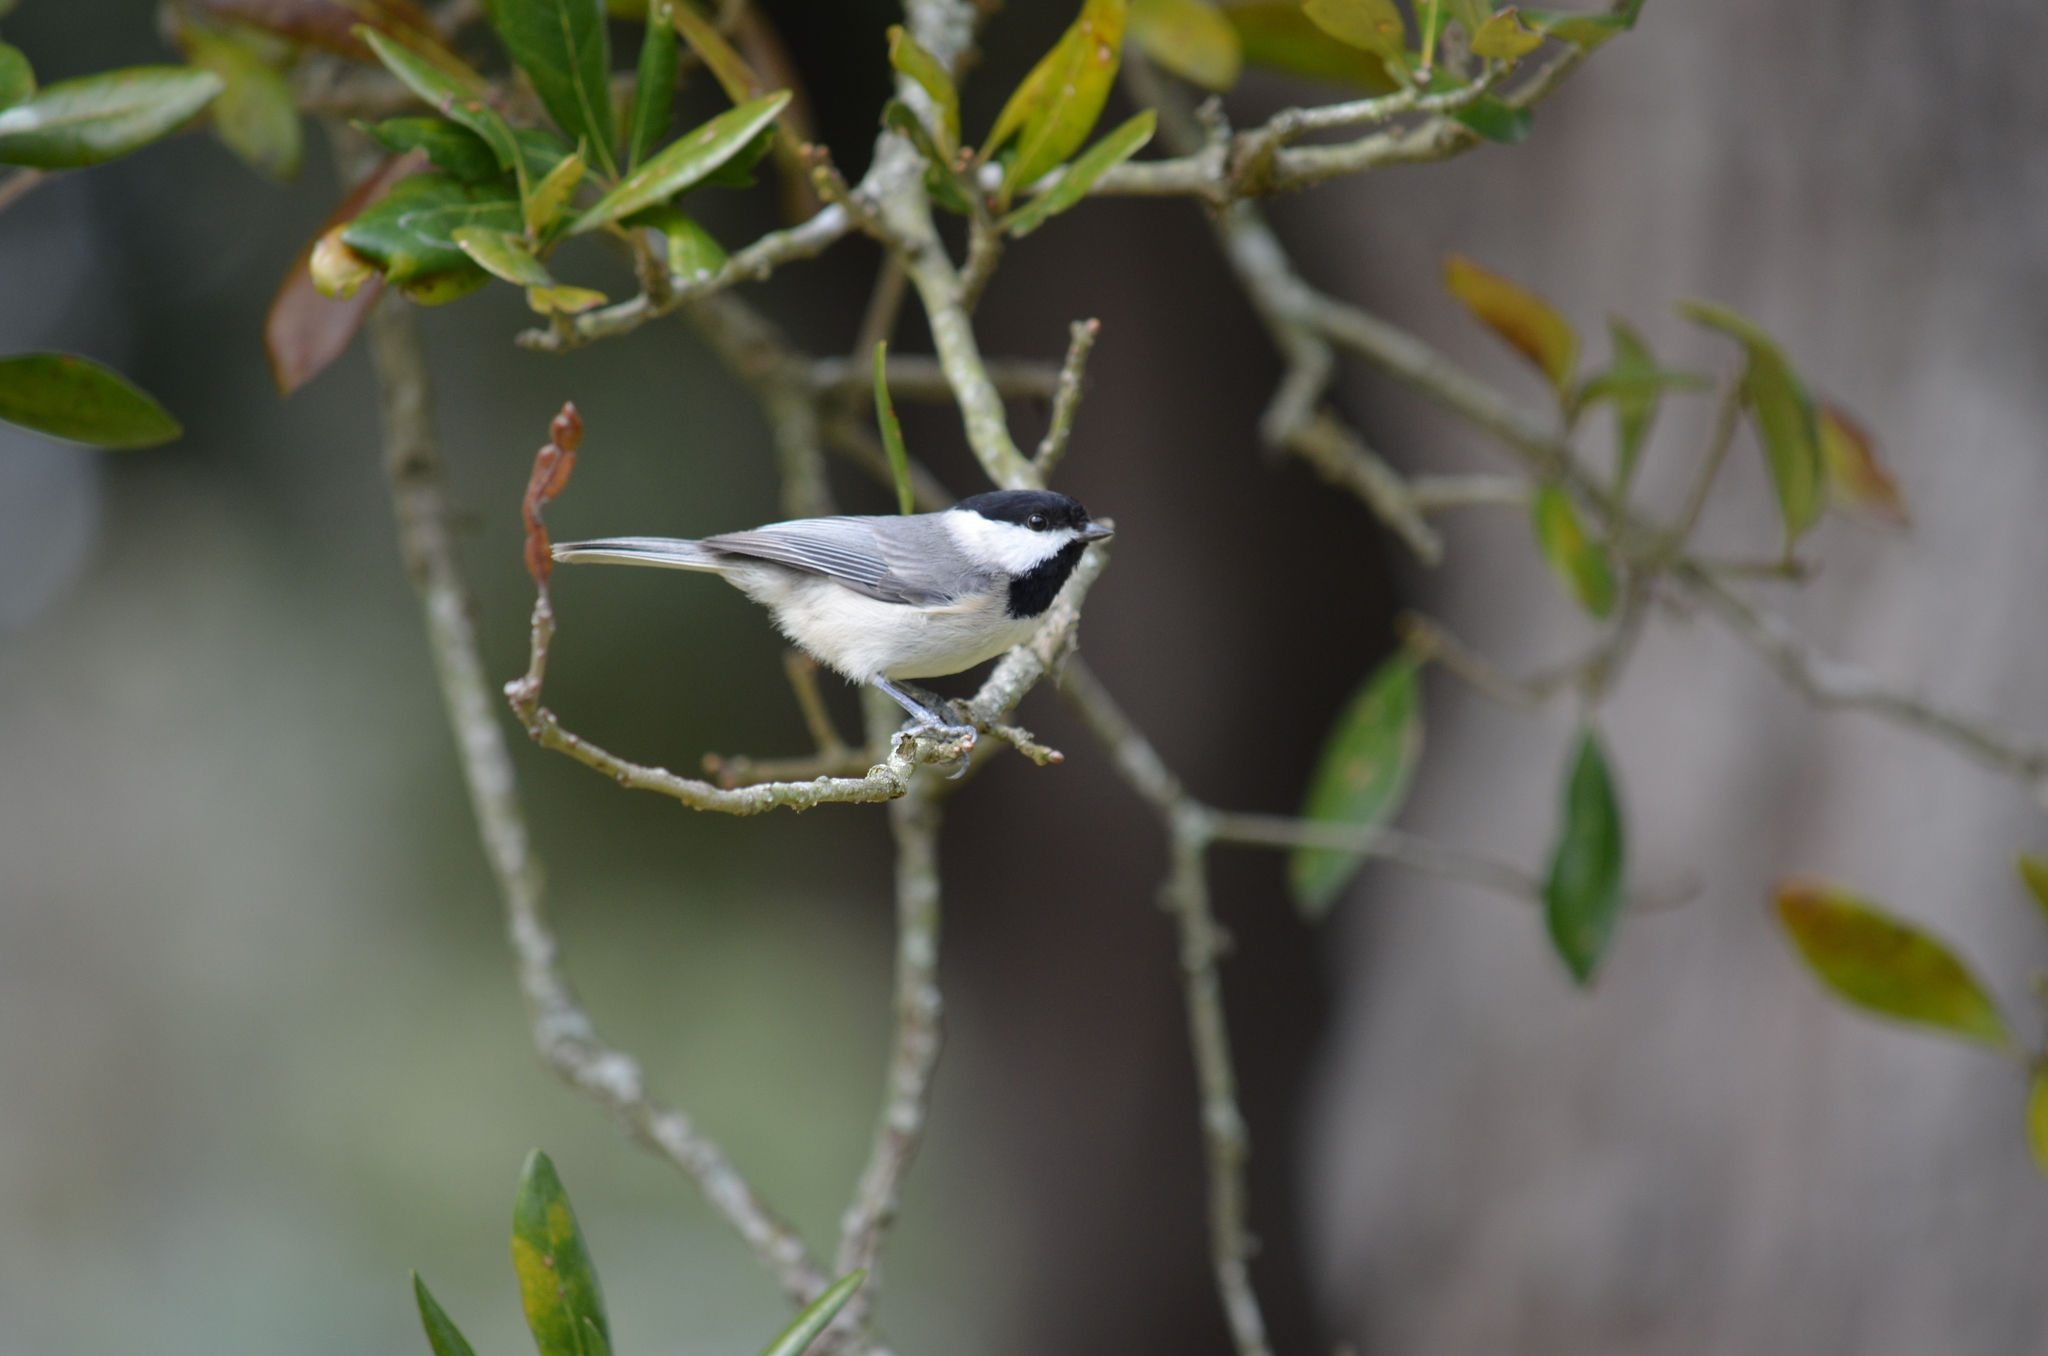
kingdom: Animalia
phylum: Chordata
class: Aves
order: Passeriformes
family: Paridae
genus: Poecile
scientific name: Poecile carolinensis
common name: Carolina chickadee
